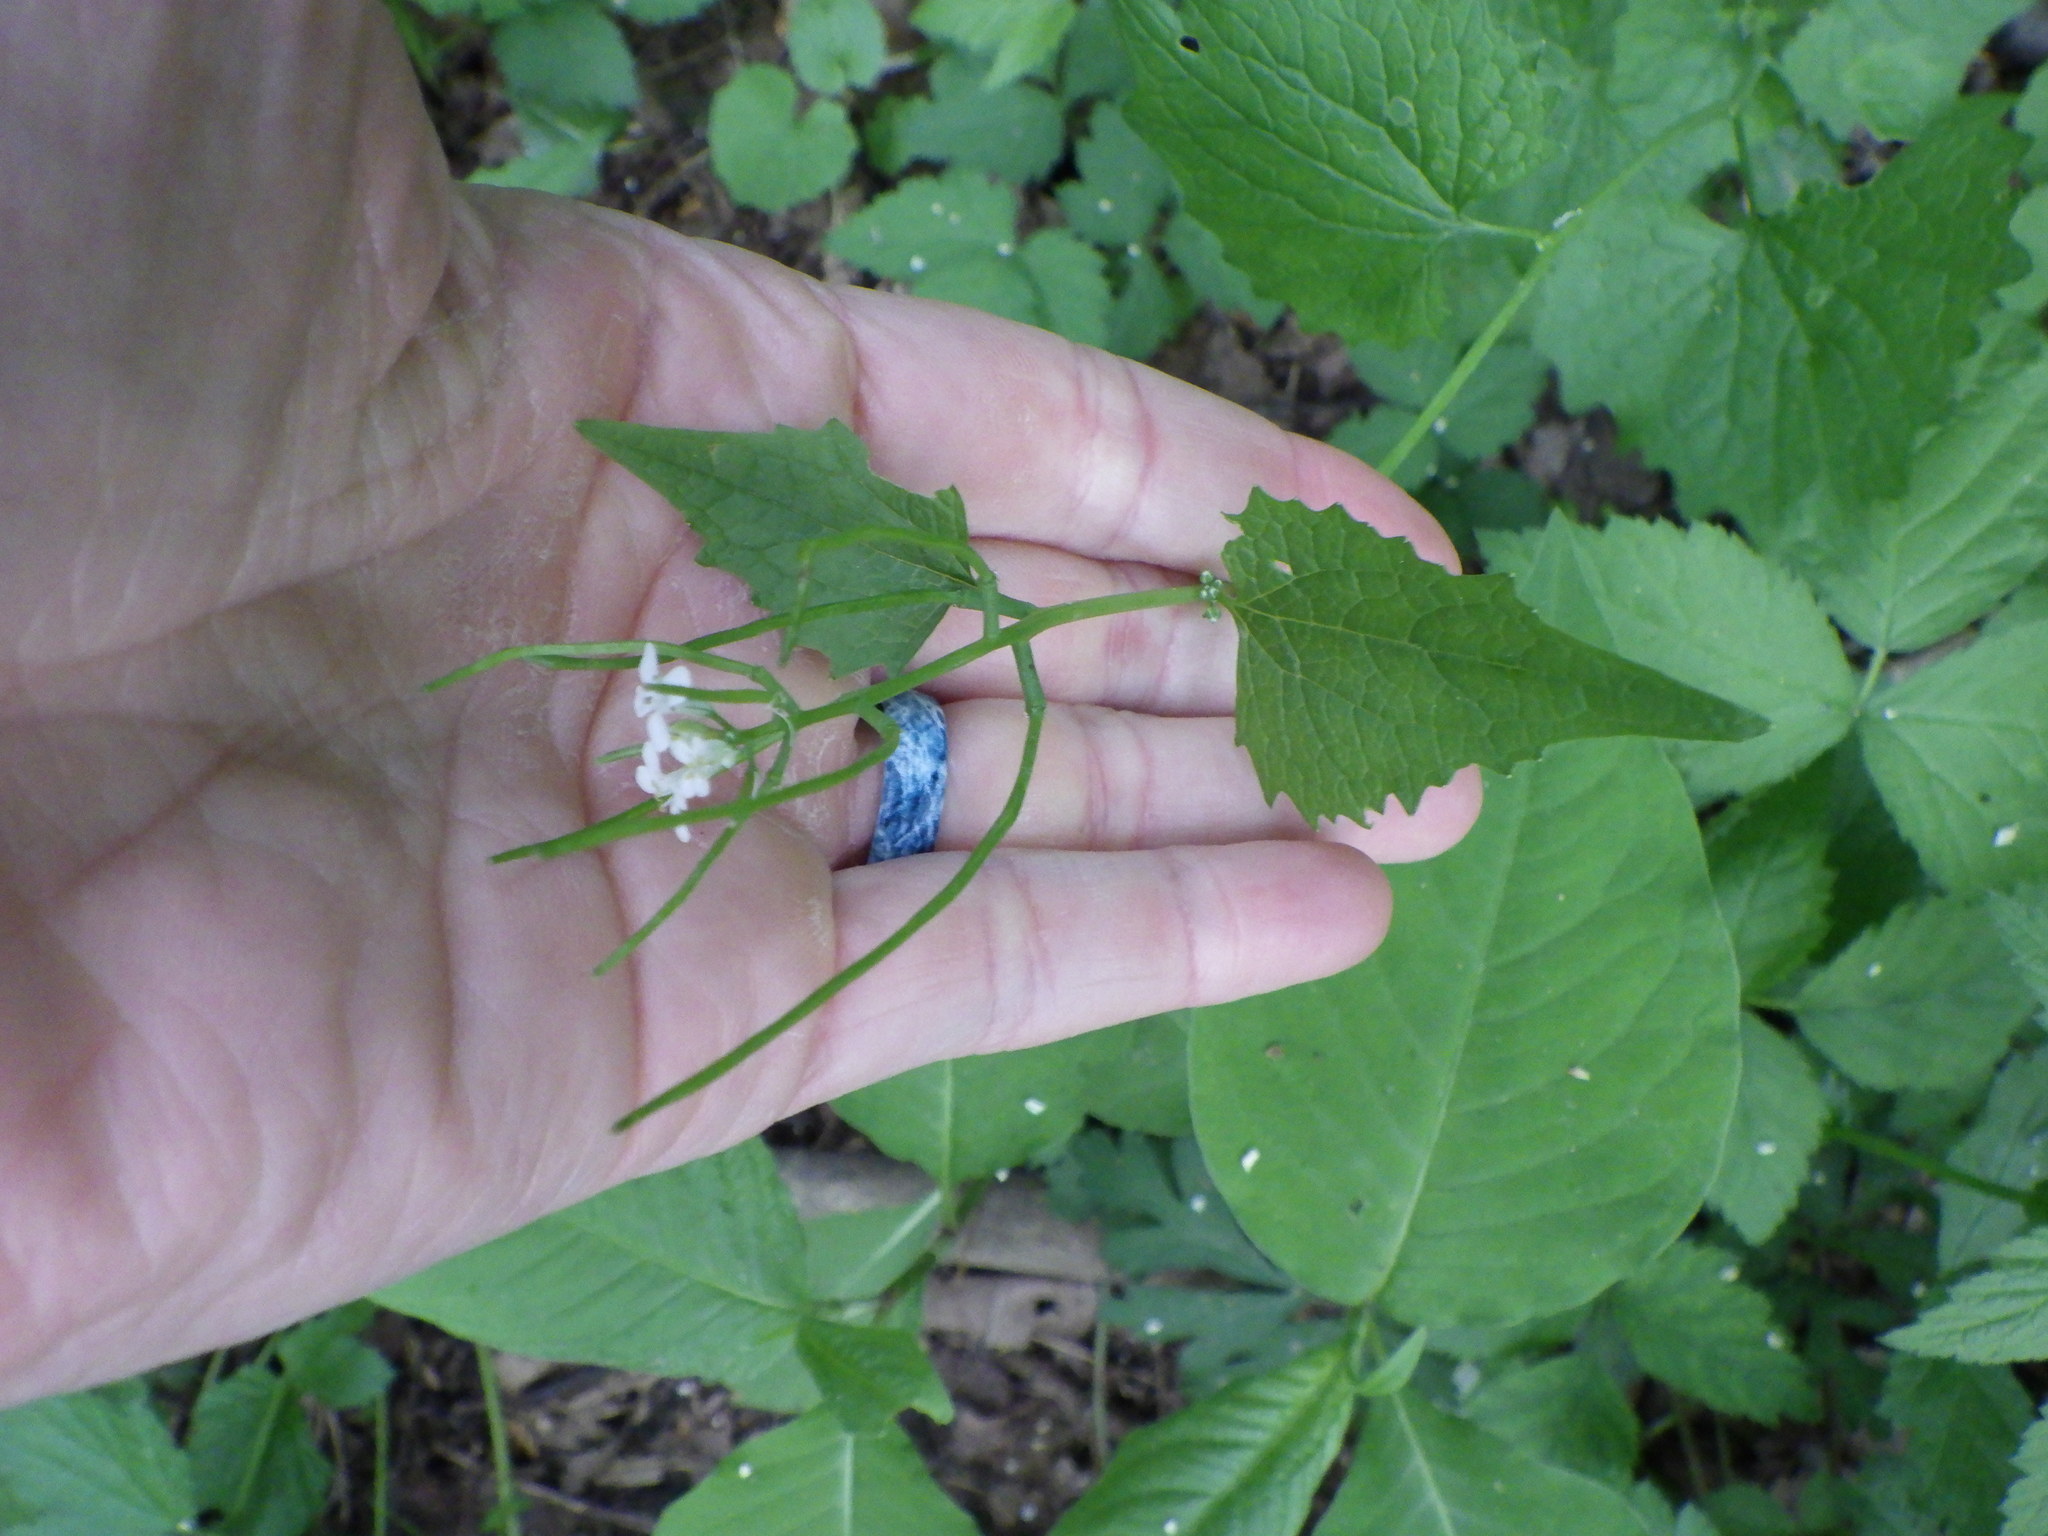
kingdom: Plantae
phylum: Tracheophyta
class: Magnoliopsida
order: Brassicales
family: Brassicaceae
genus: Alliaria
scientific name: Alliaria petiolata
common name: Garlic mustard
